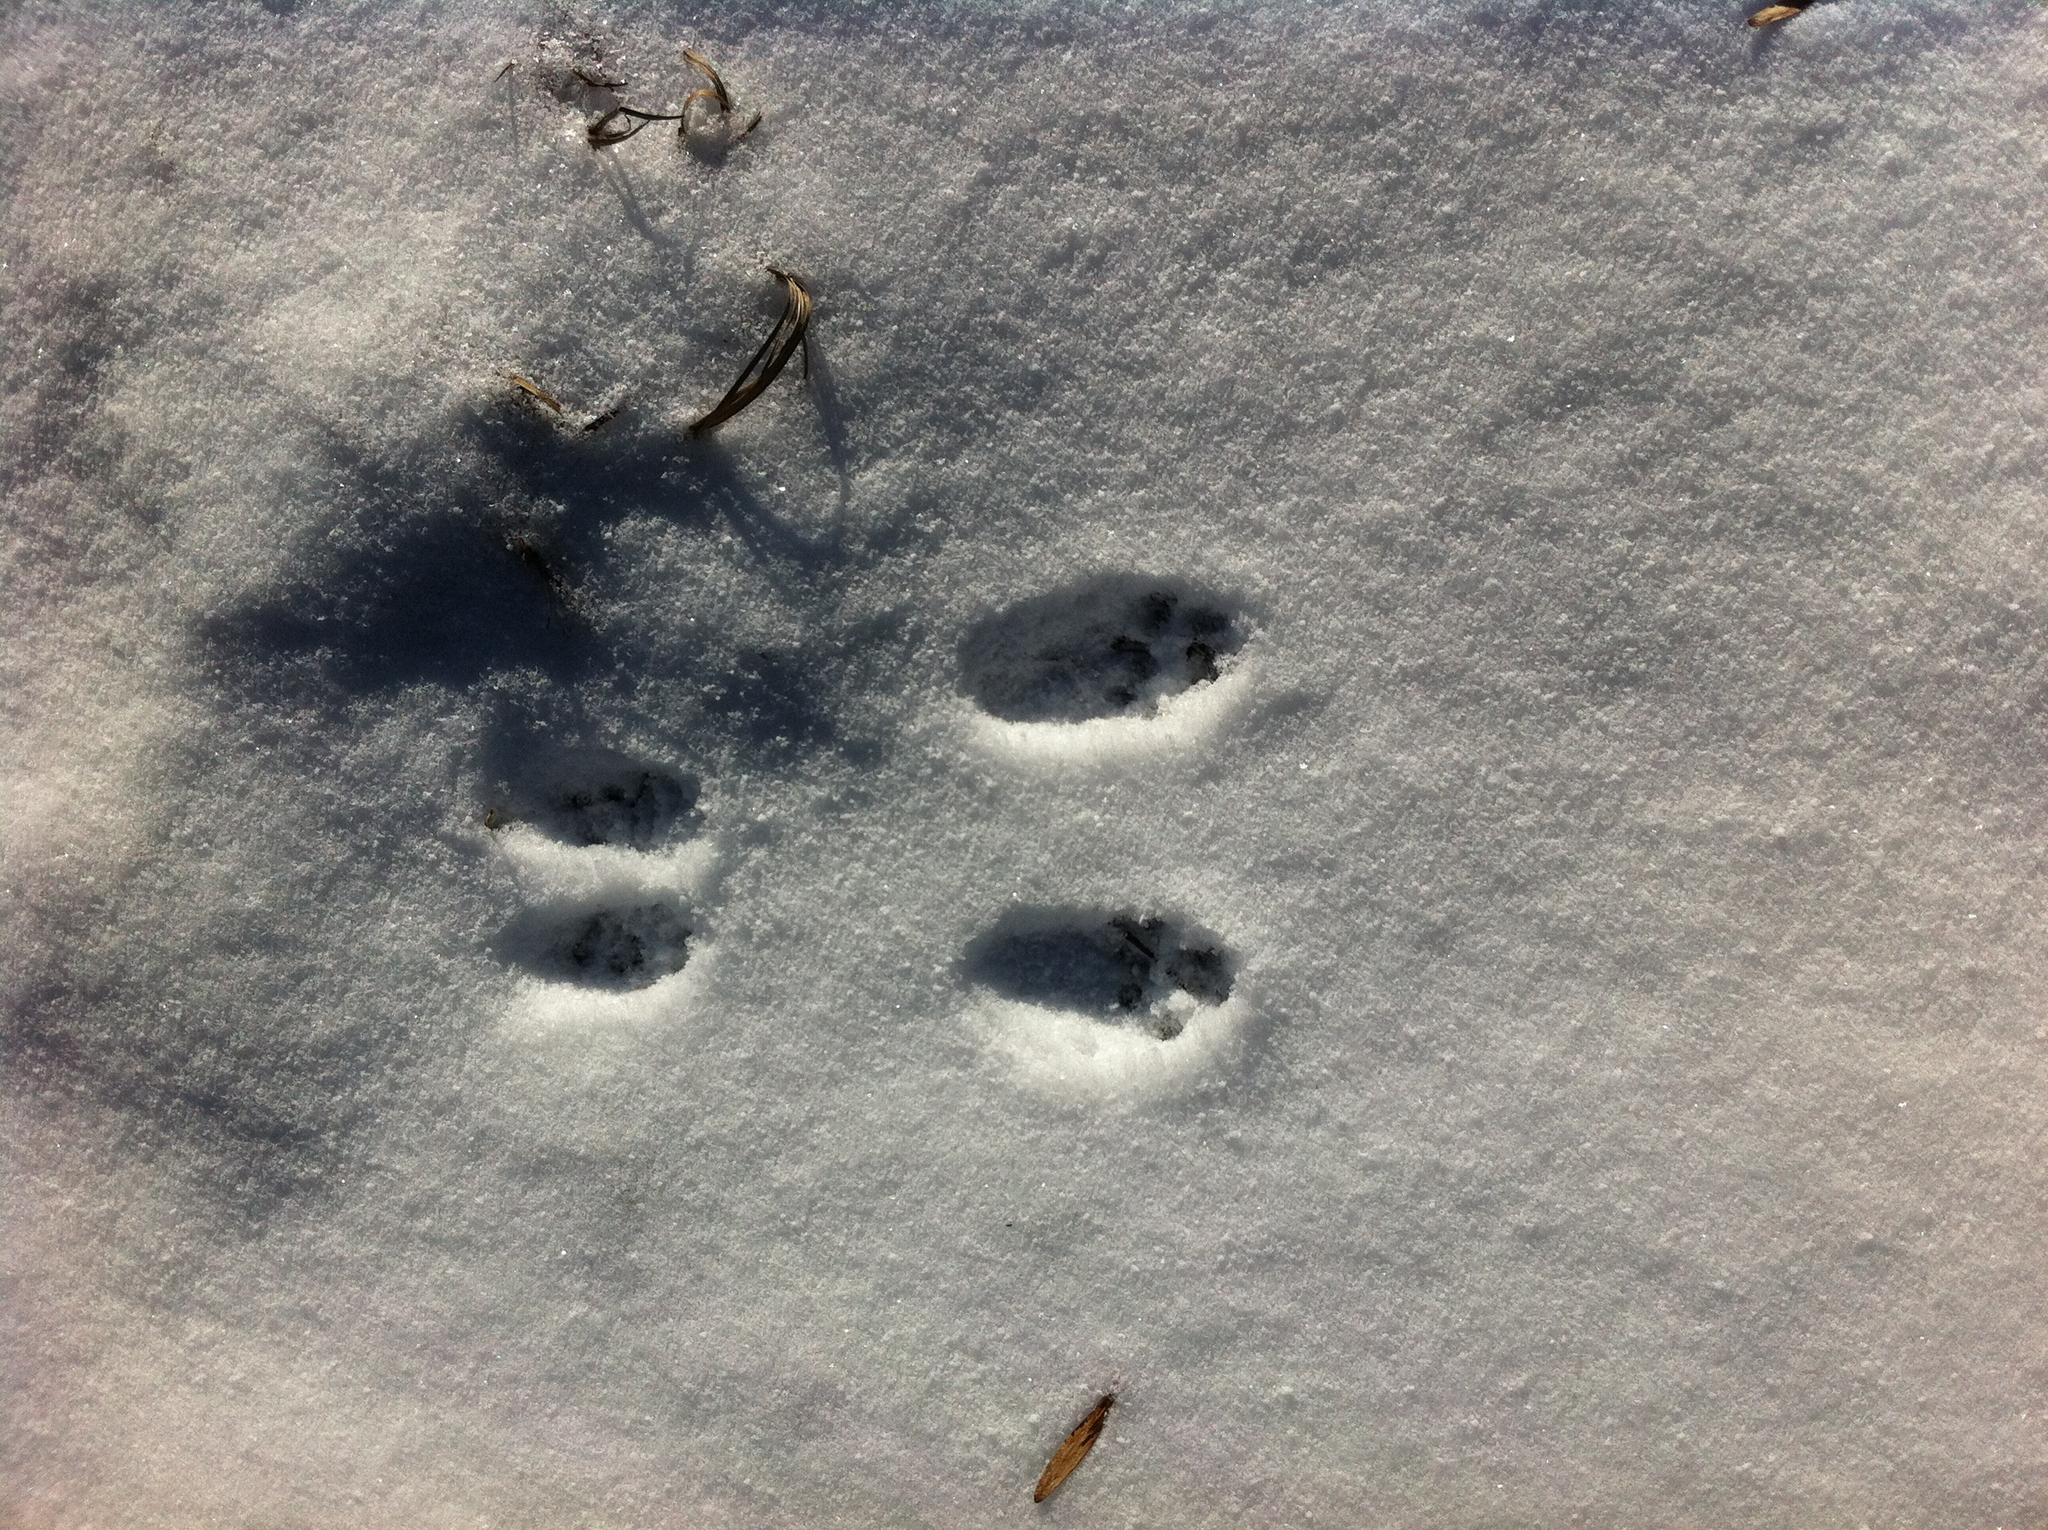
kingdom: Animalia
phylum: Chordata
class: Mammalia
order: Rodentia
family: Sciuridae
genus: Sciurus
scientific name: Sciurus carolinensis
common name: Eastern gray squirrel
